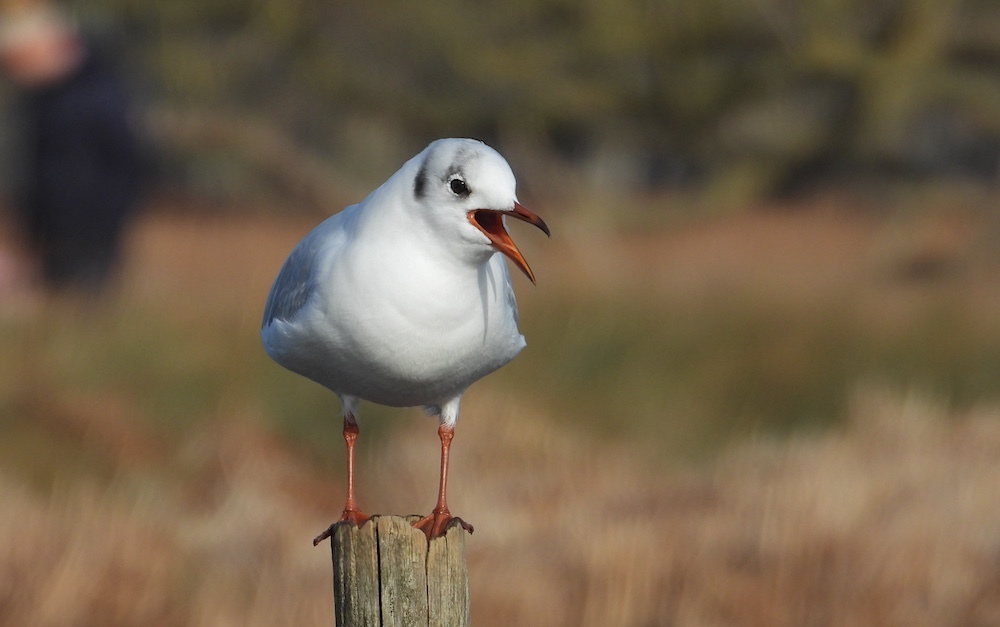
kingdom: Animalia
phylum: Chordata
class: Aves
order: Charadriiformes
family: Laridae
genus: Chroicocephalus
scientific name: Chroicocephalus ridibundus
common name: Black-headed gull
